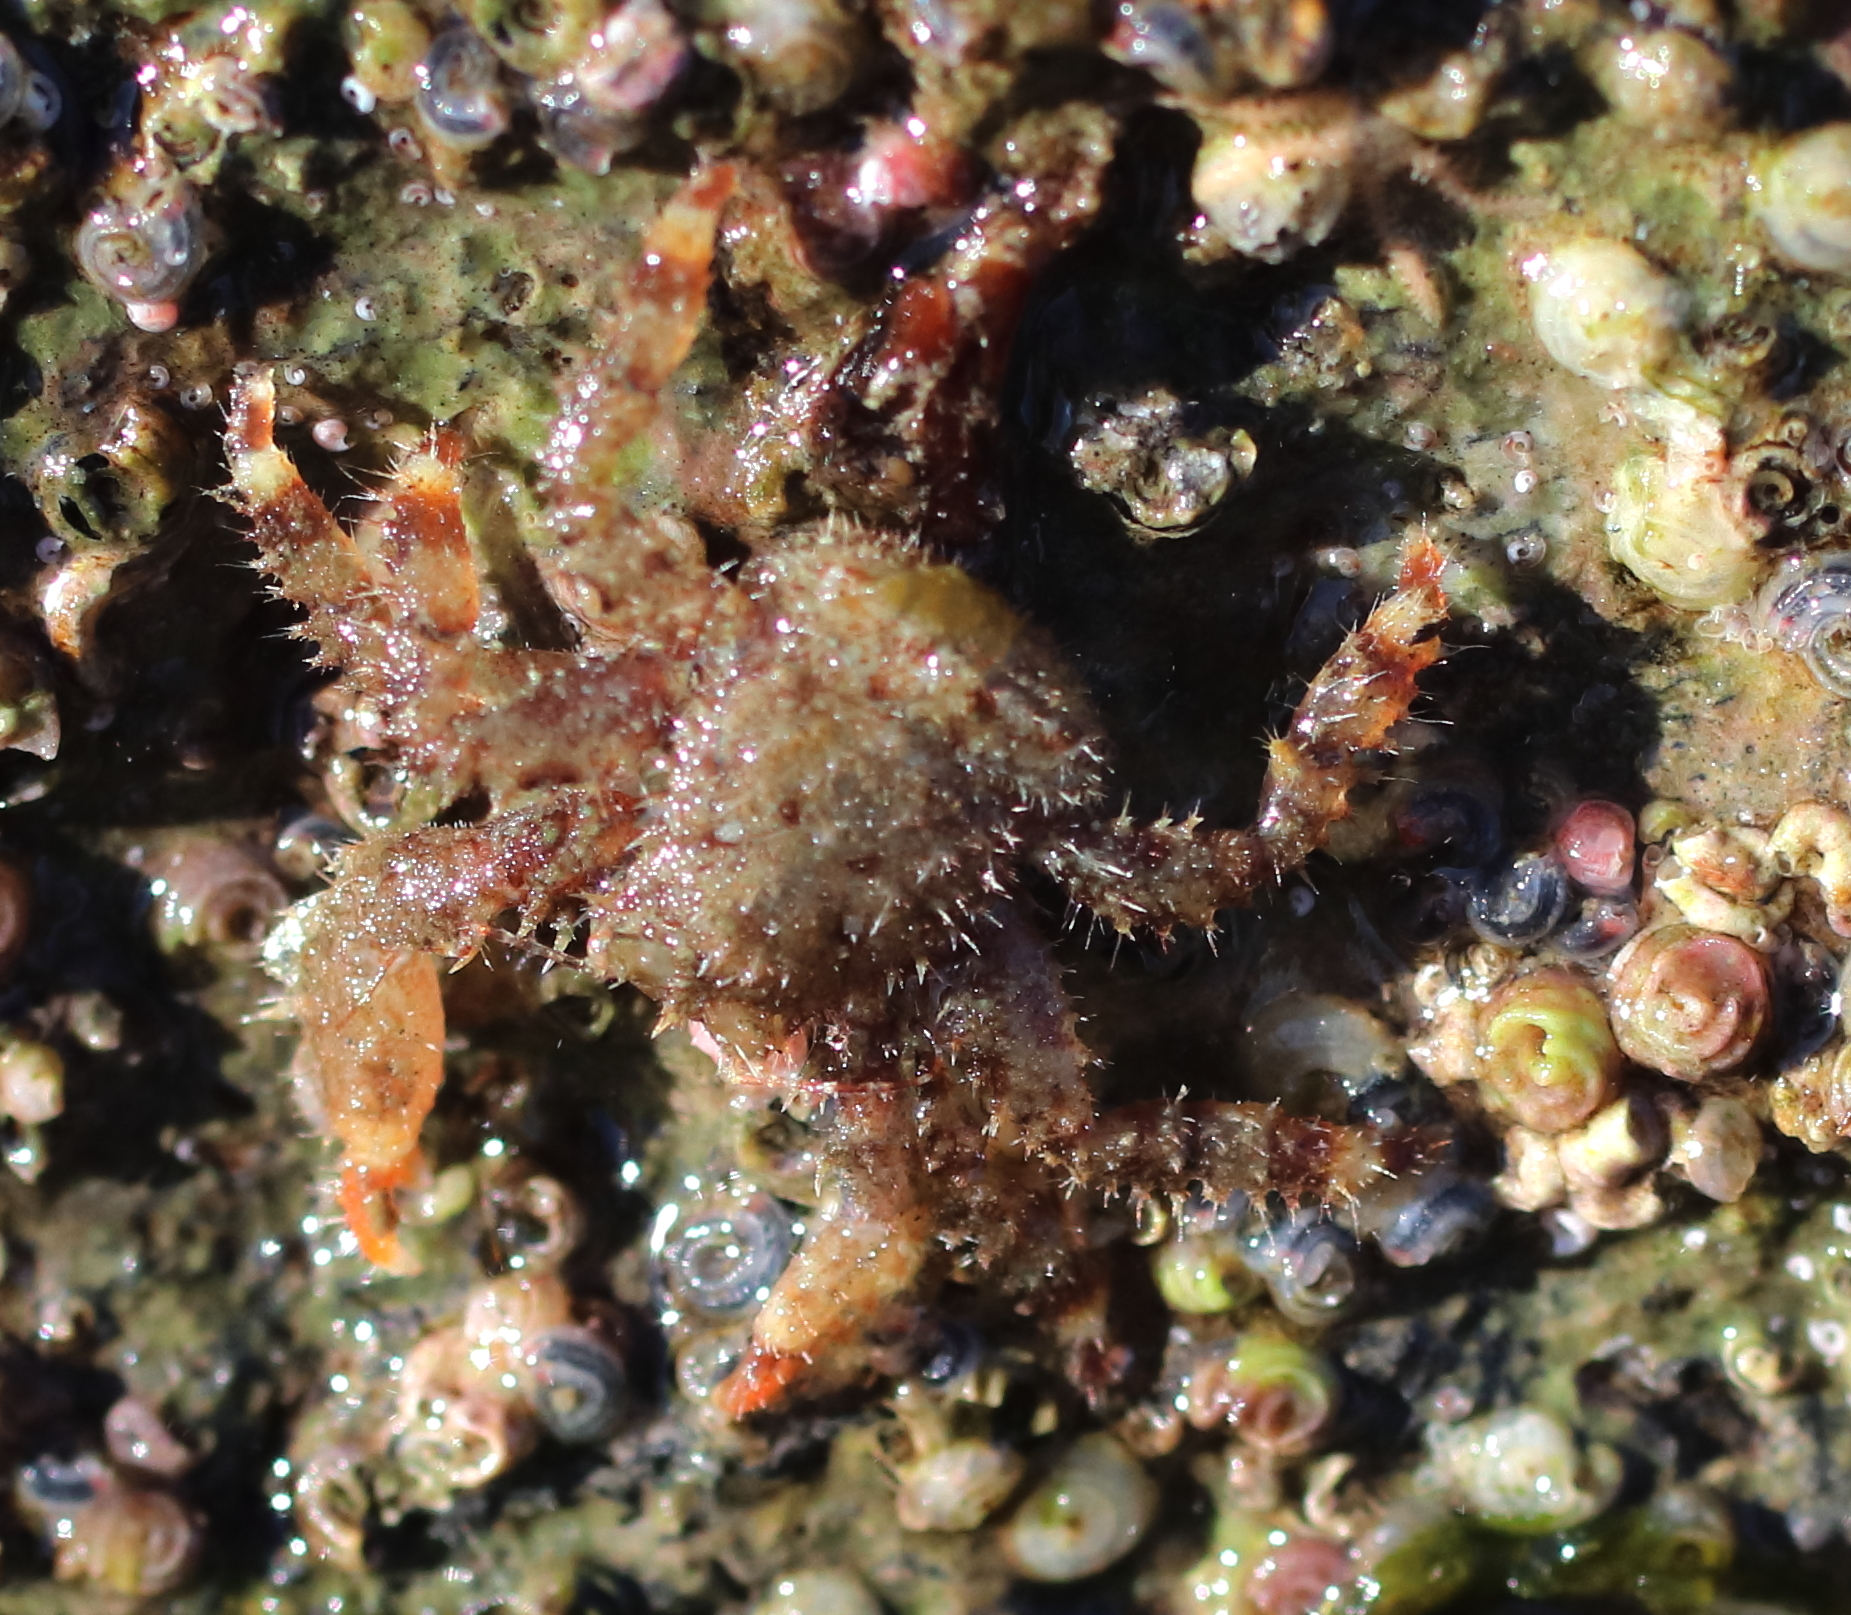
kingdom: Animalia
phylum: Arthropoda
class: Malacostraca
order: Decapoda
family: Hapalogastridae
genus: Hapalogaster
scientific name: Hapalogaster mertensii
